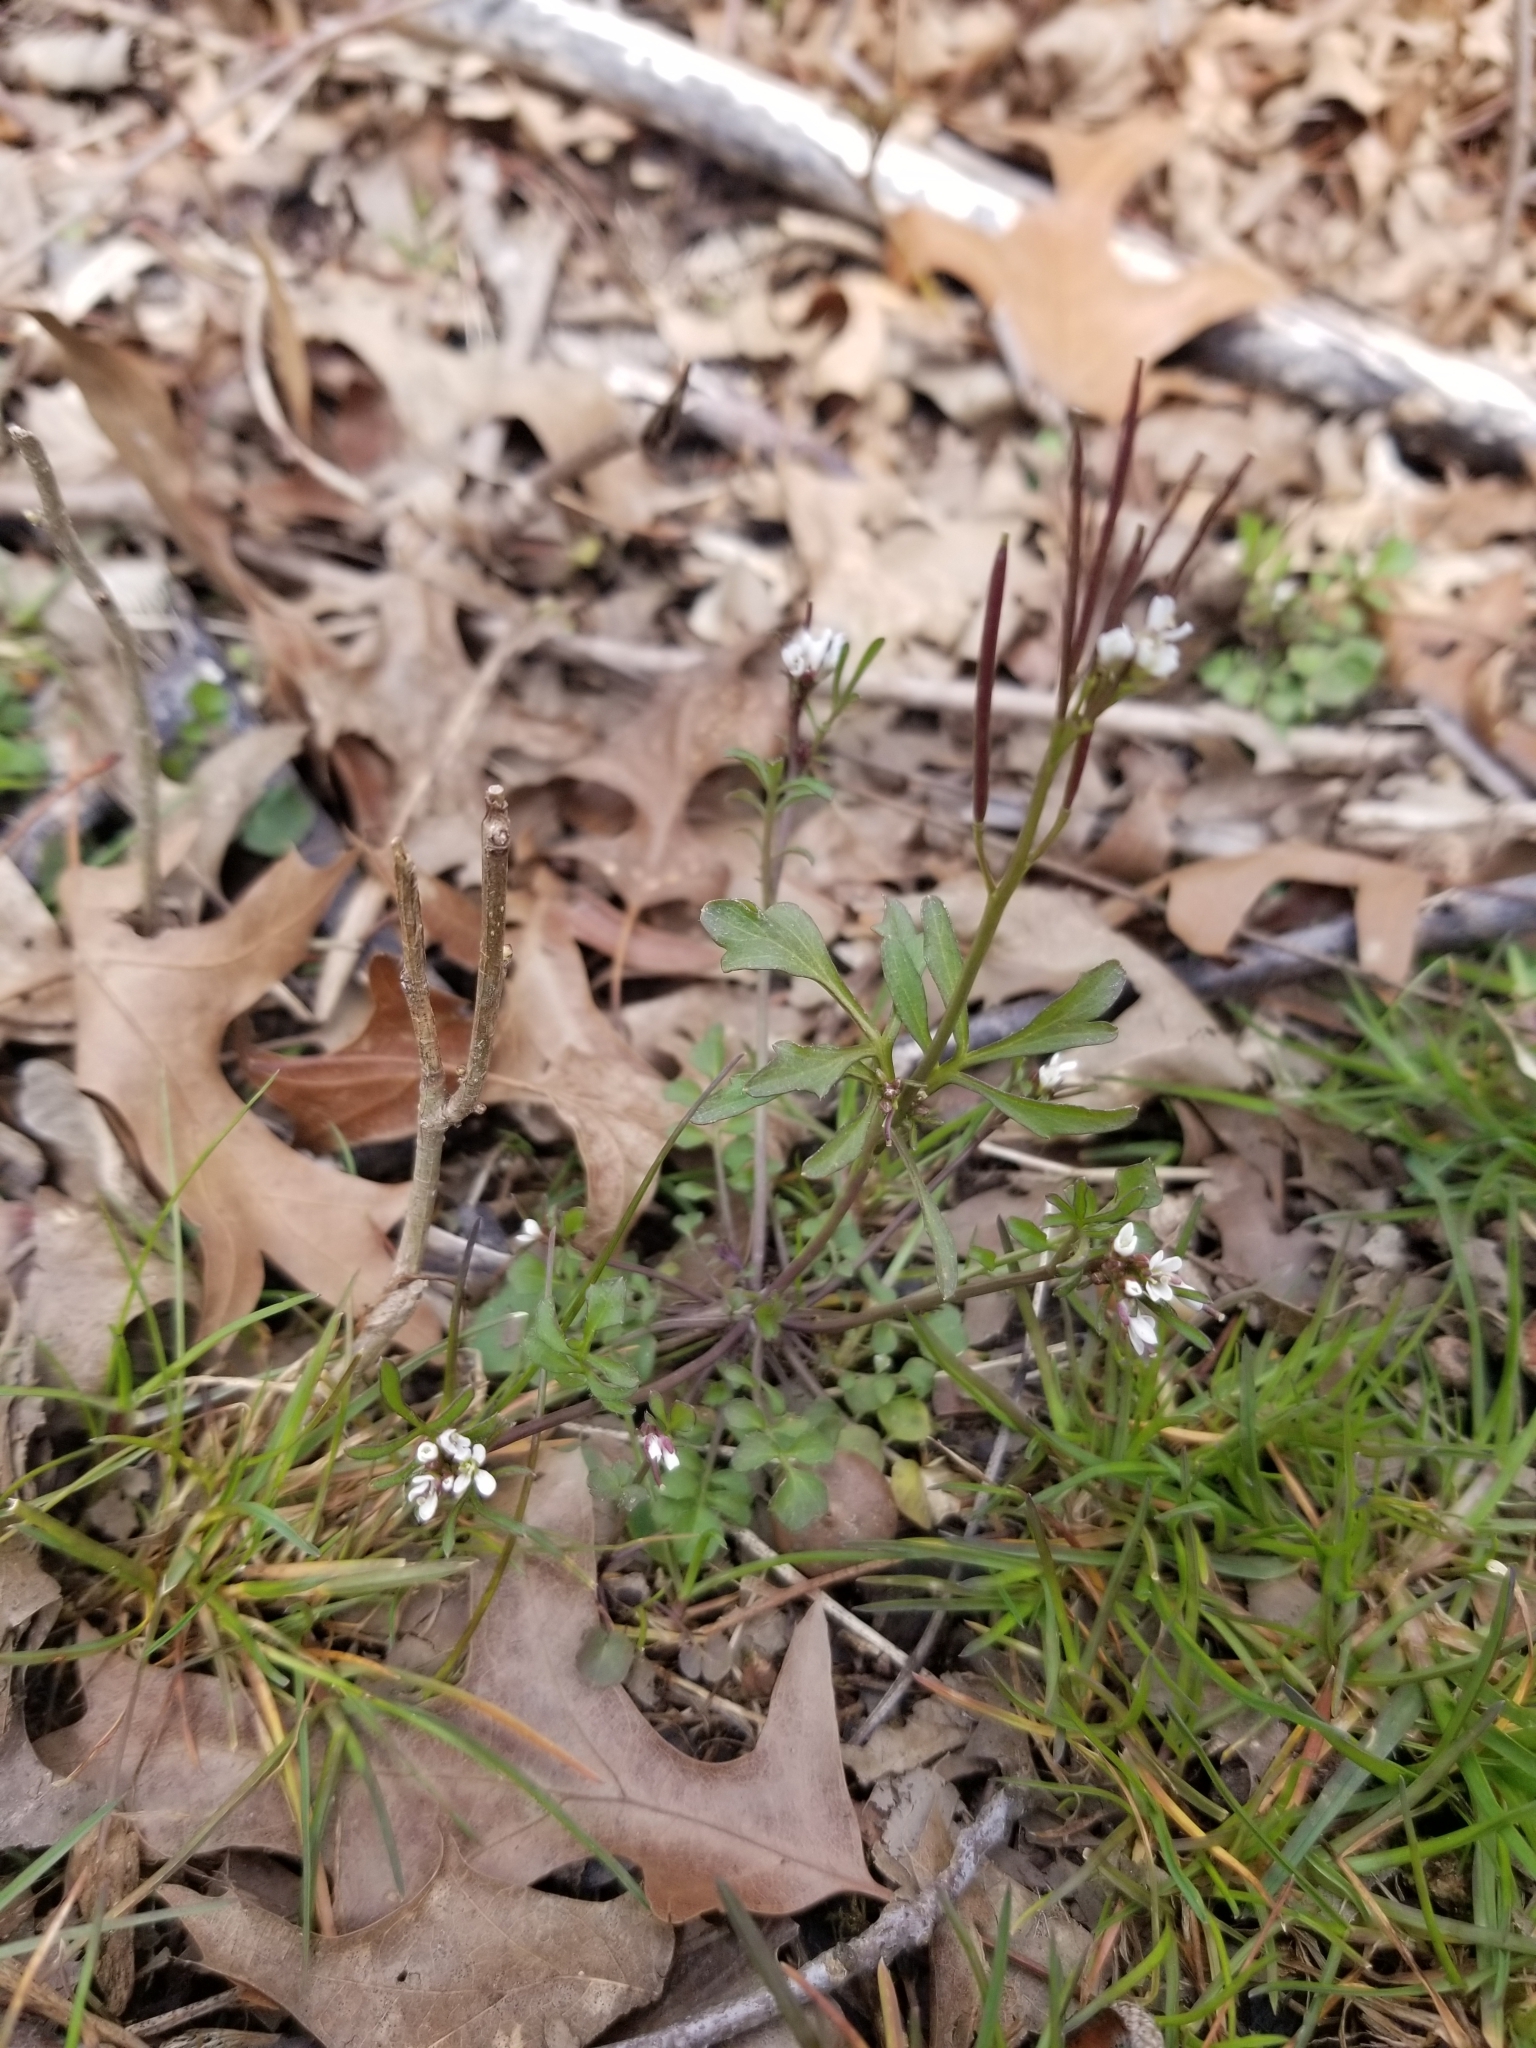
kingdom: Plantae
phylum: Tracheophyta
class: Magnoliopsida
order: Brassicales
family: Brassicaceae
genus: Cardamine
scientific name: Cardamine hirsuta
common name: Hairy bittercress
